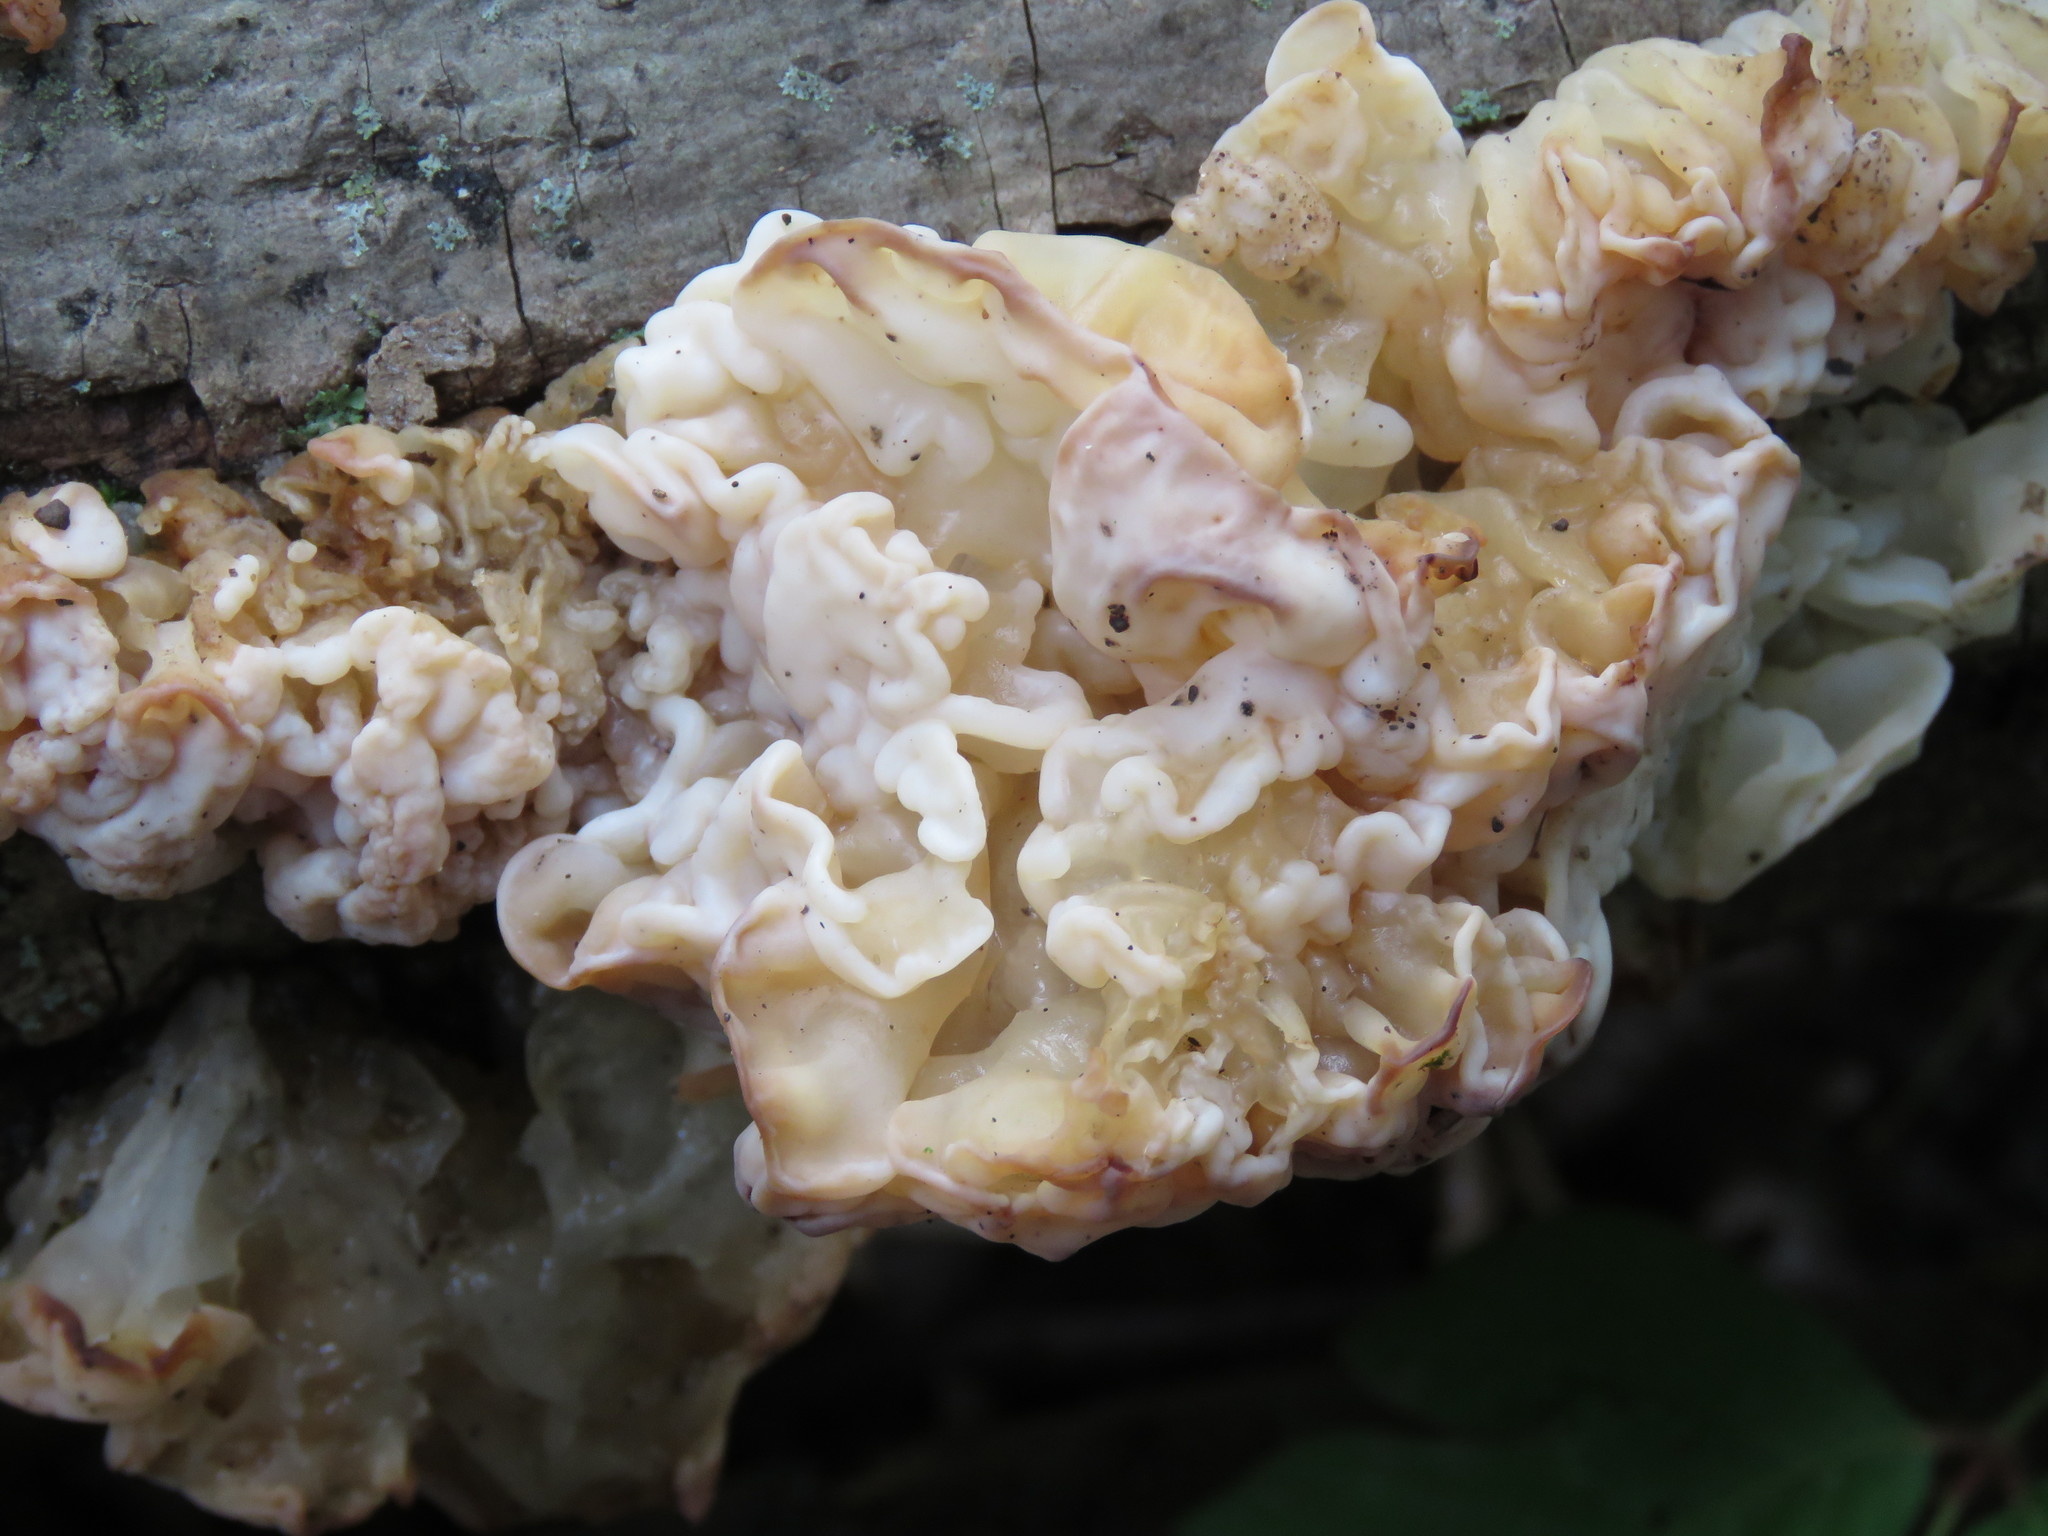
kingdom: Fungi
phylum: Basidiomycota
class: Agaricomycetes
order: Auriculariales
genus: Ductifera
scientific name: Ductifera pululahuana
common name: White jelly fungus
